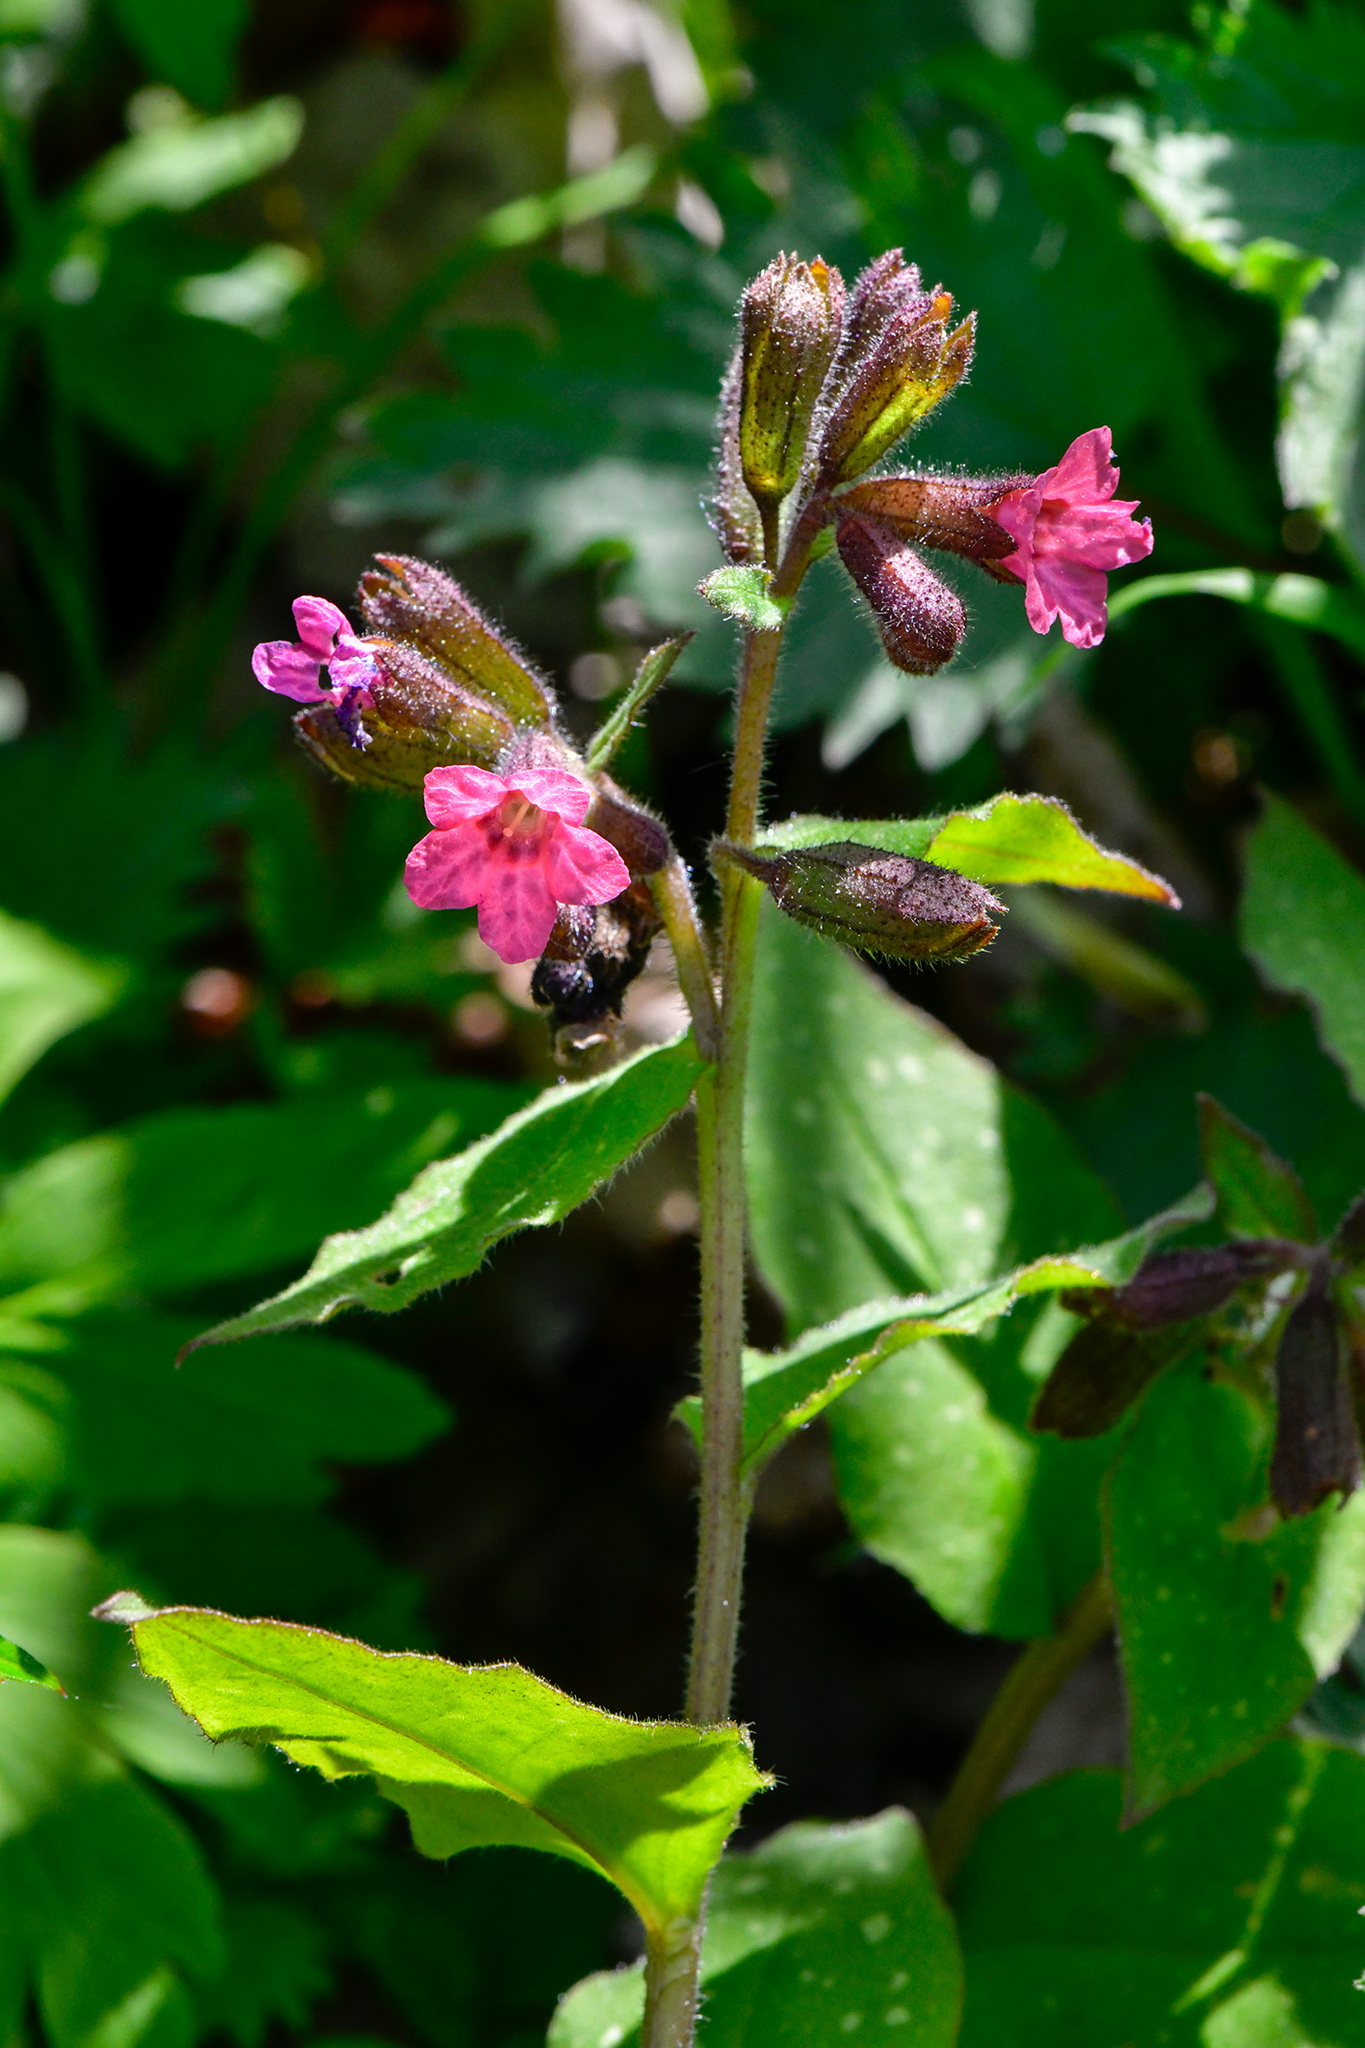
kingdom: Plantae
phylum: Tracheophyta
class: Magnoliopsida
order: Boraginales
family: Boraginaceae
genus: Pulmonaria
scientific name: Pulmonaria officinalis
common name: Lungwort
